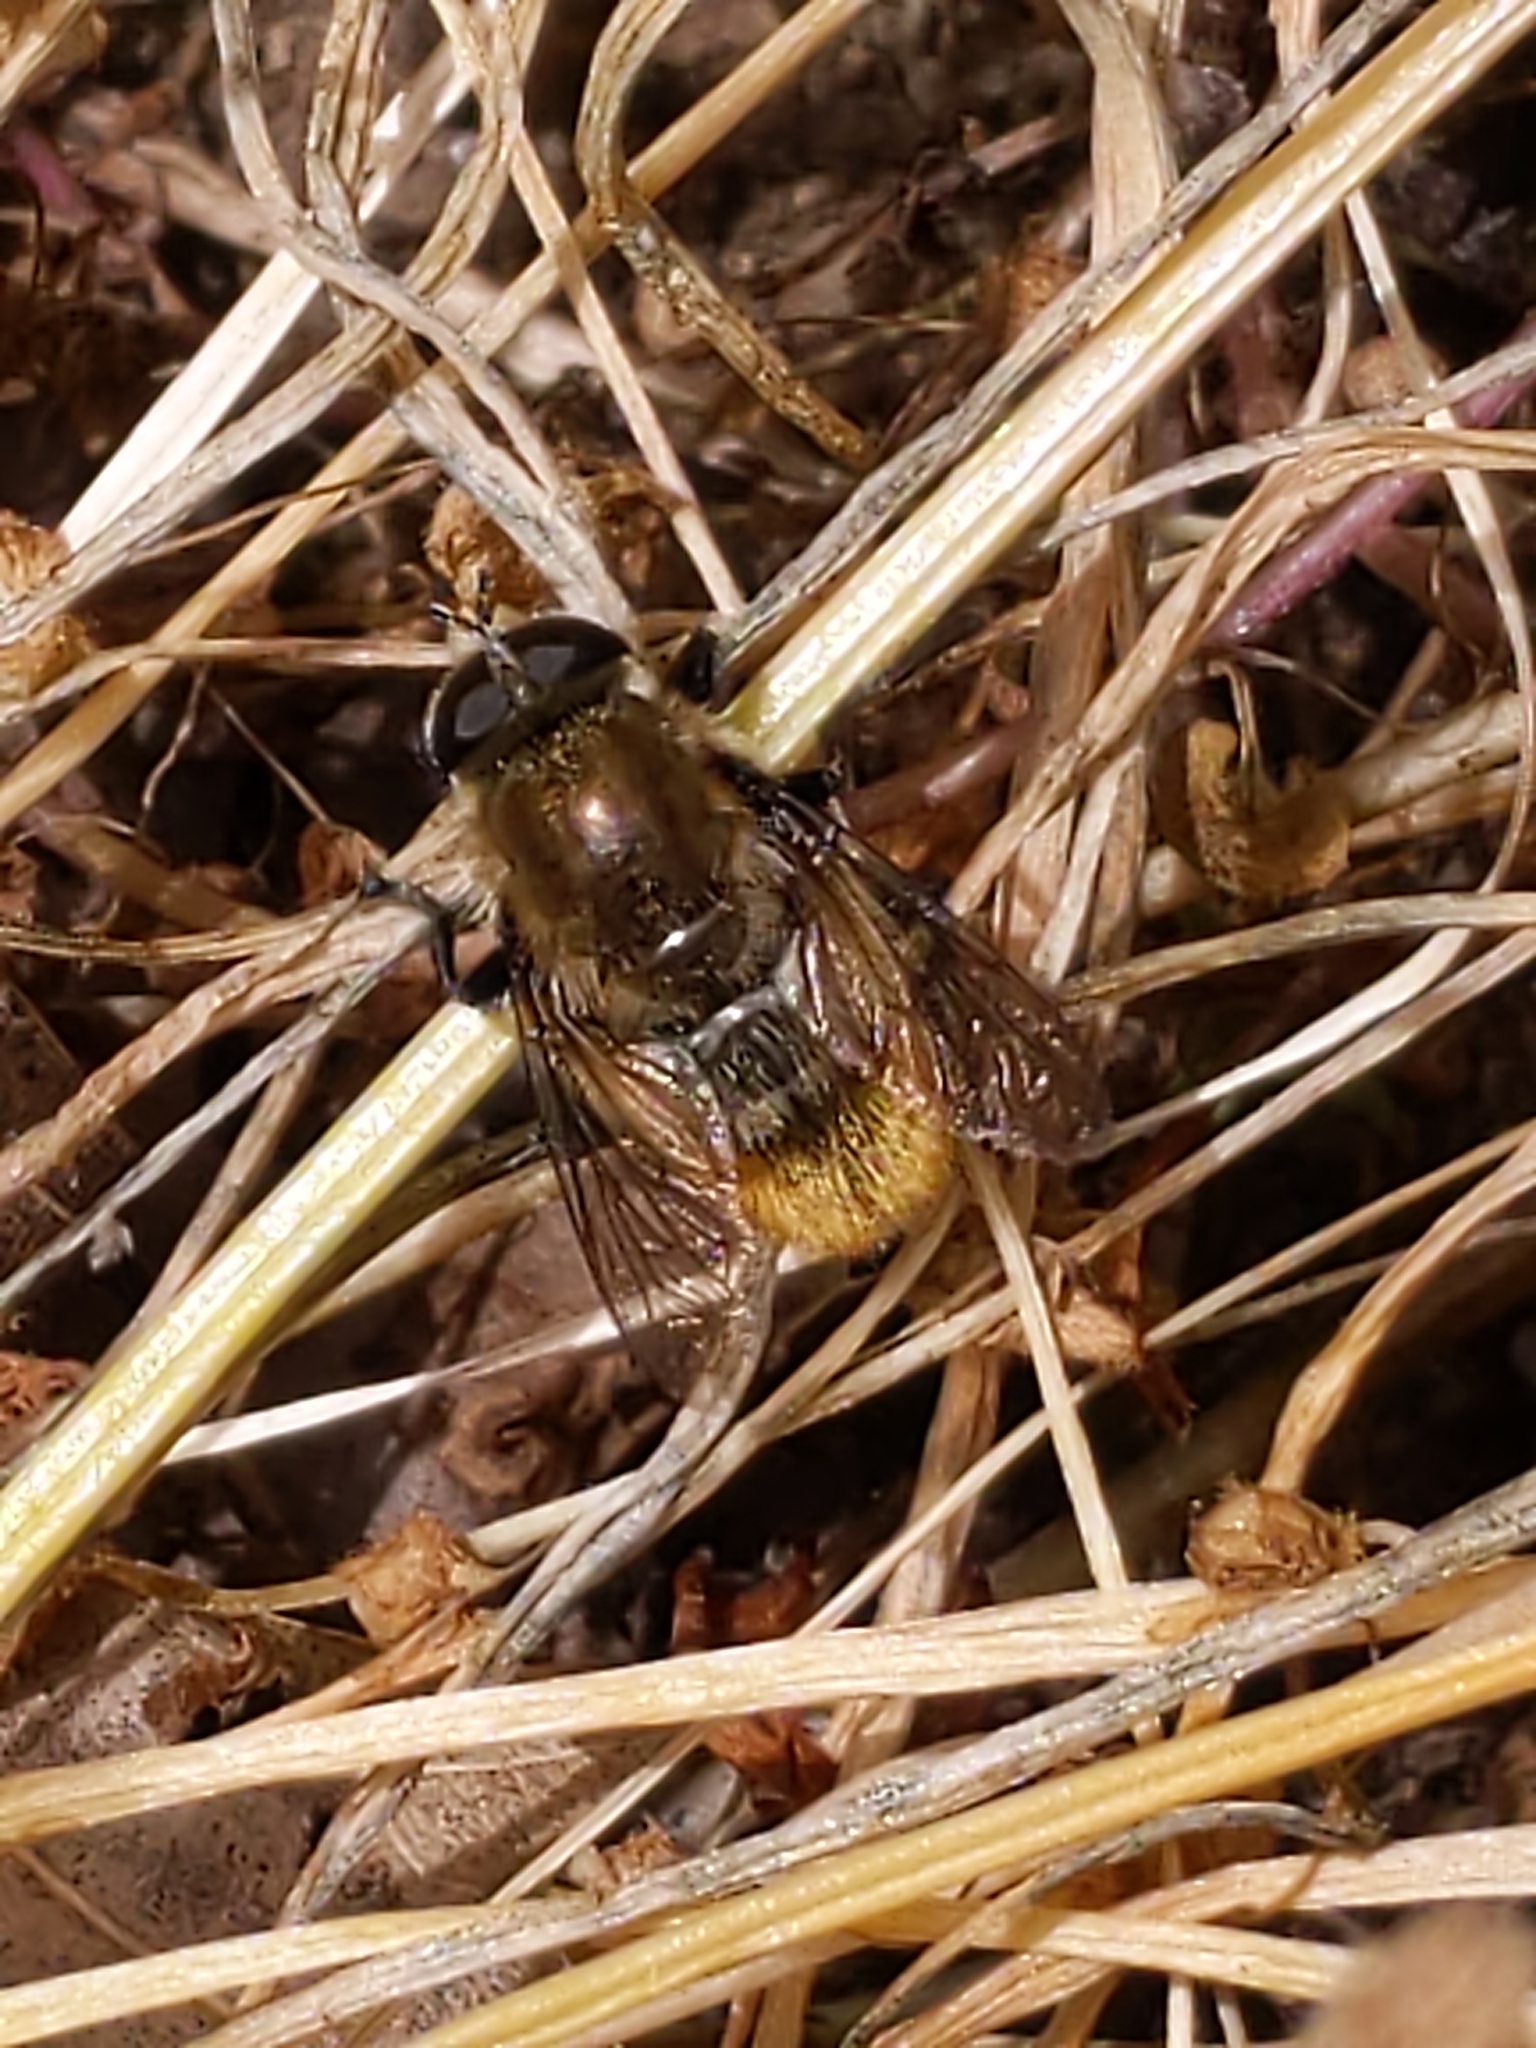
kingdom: Animalia
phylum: Arthropoda
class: Insecta
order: Diptera
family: Syrphidae
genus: Merodon
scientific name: Merodon equestris
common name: Greater bulb-fly
